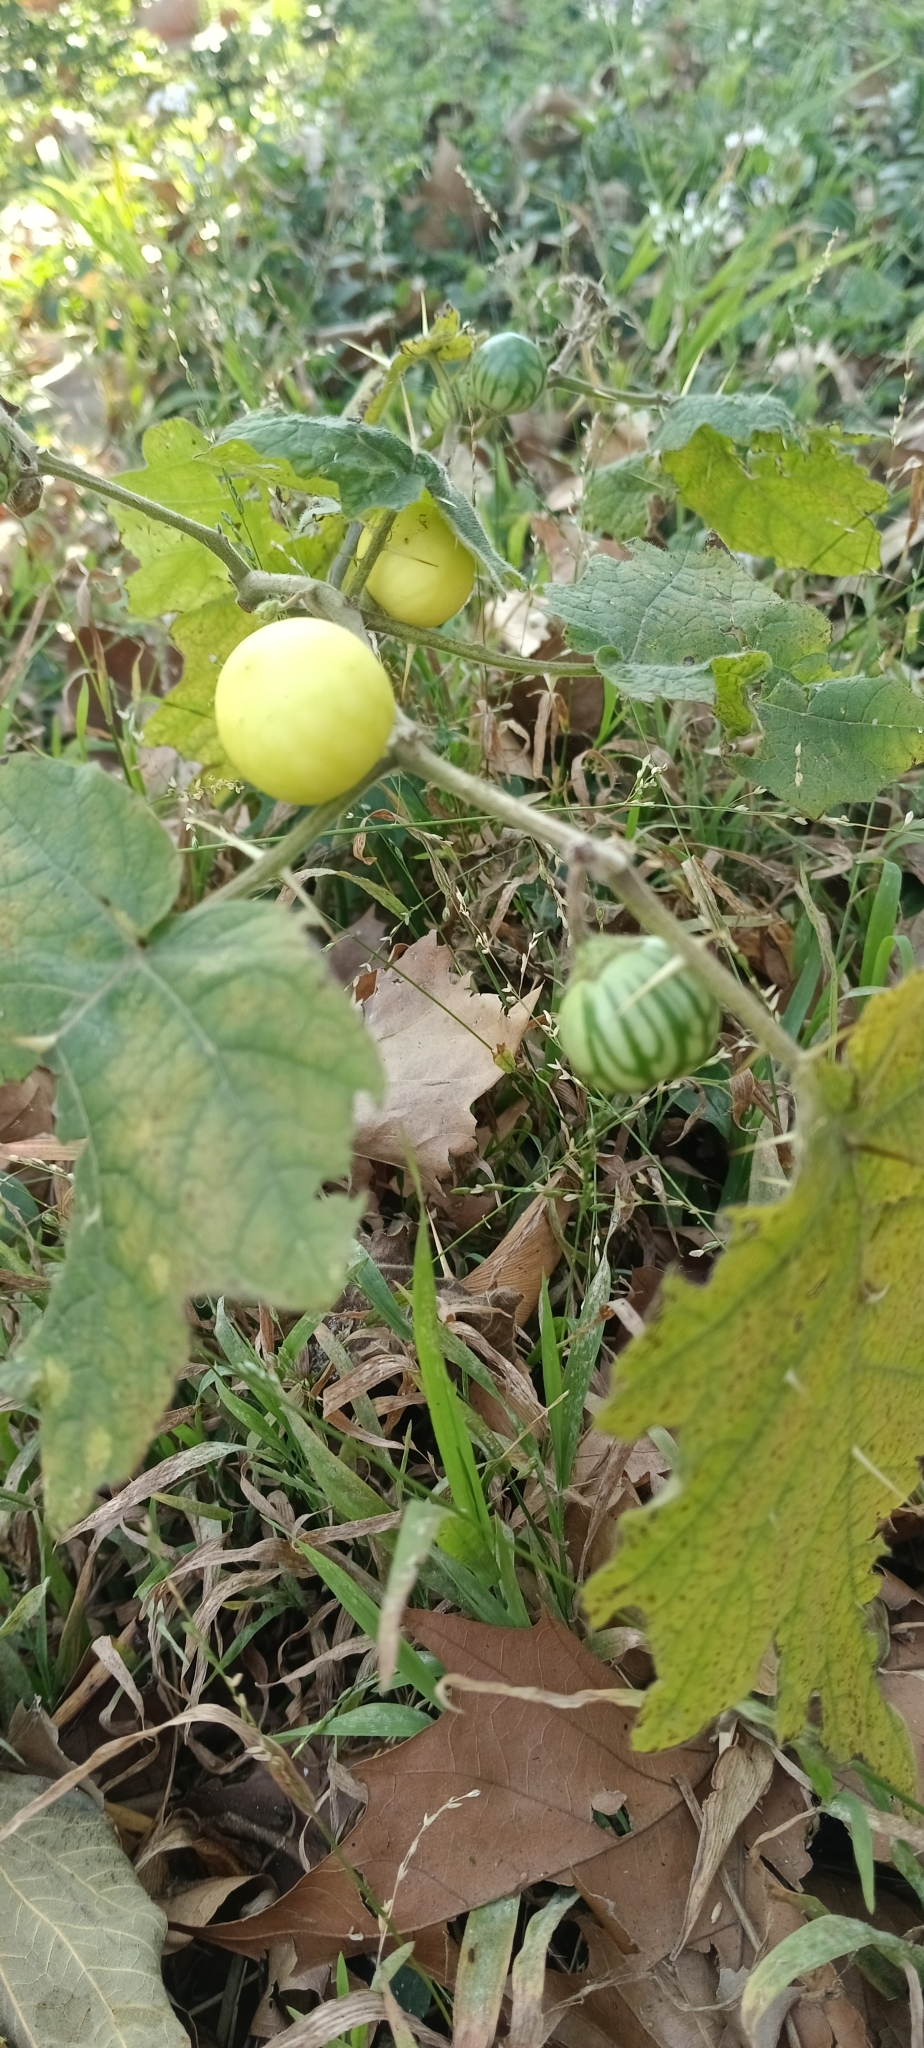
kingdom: Plantae
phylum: Tracheophyta
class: Magnoliopsida
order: Solanales
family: Solanaceae
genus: Solanum
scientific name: Solanum viarum
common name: Tropical soda apple
